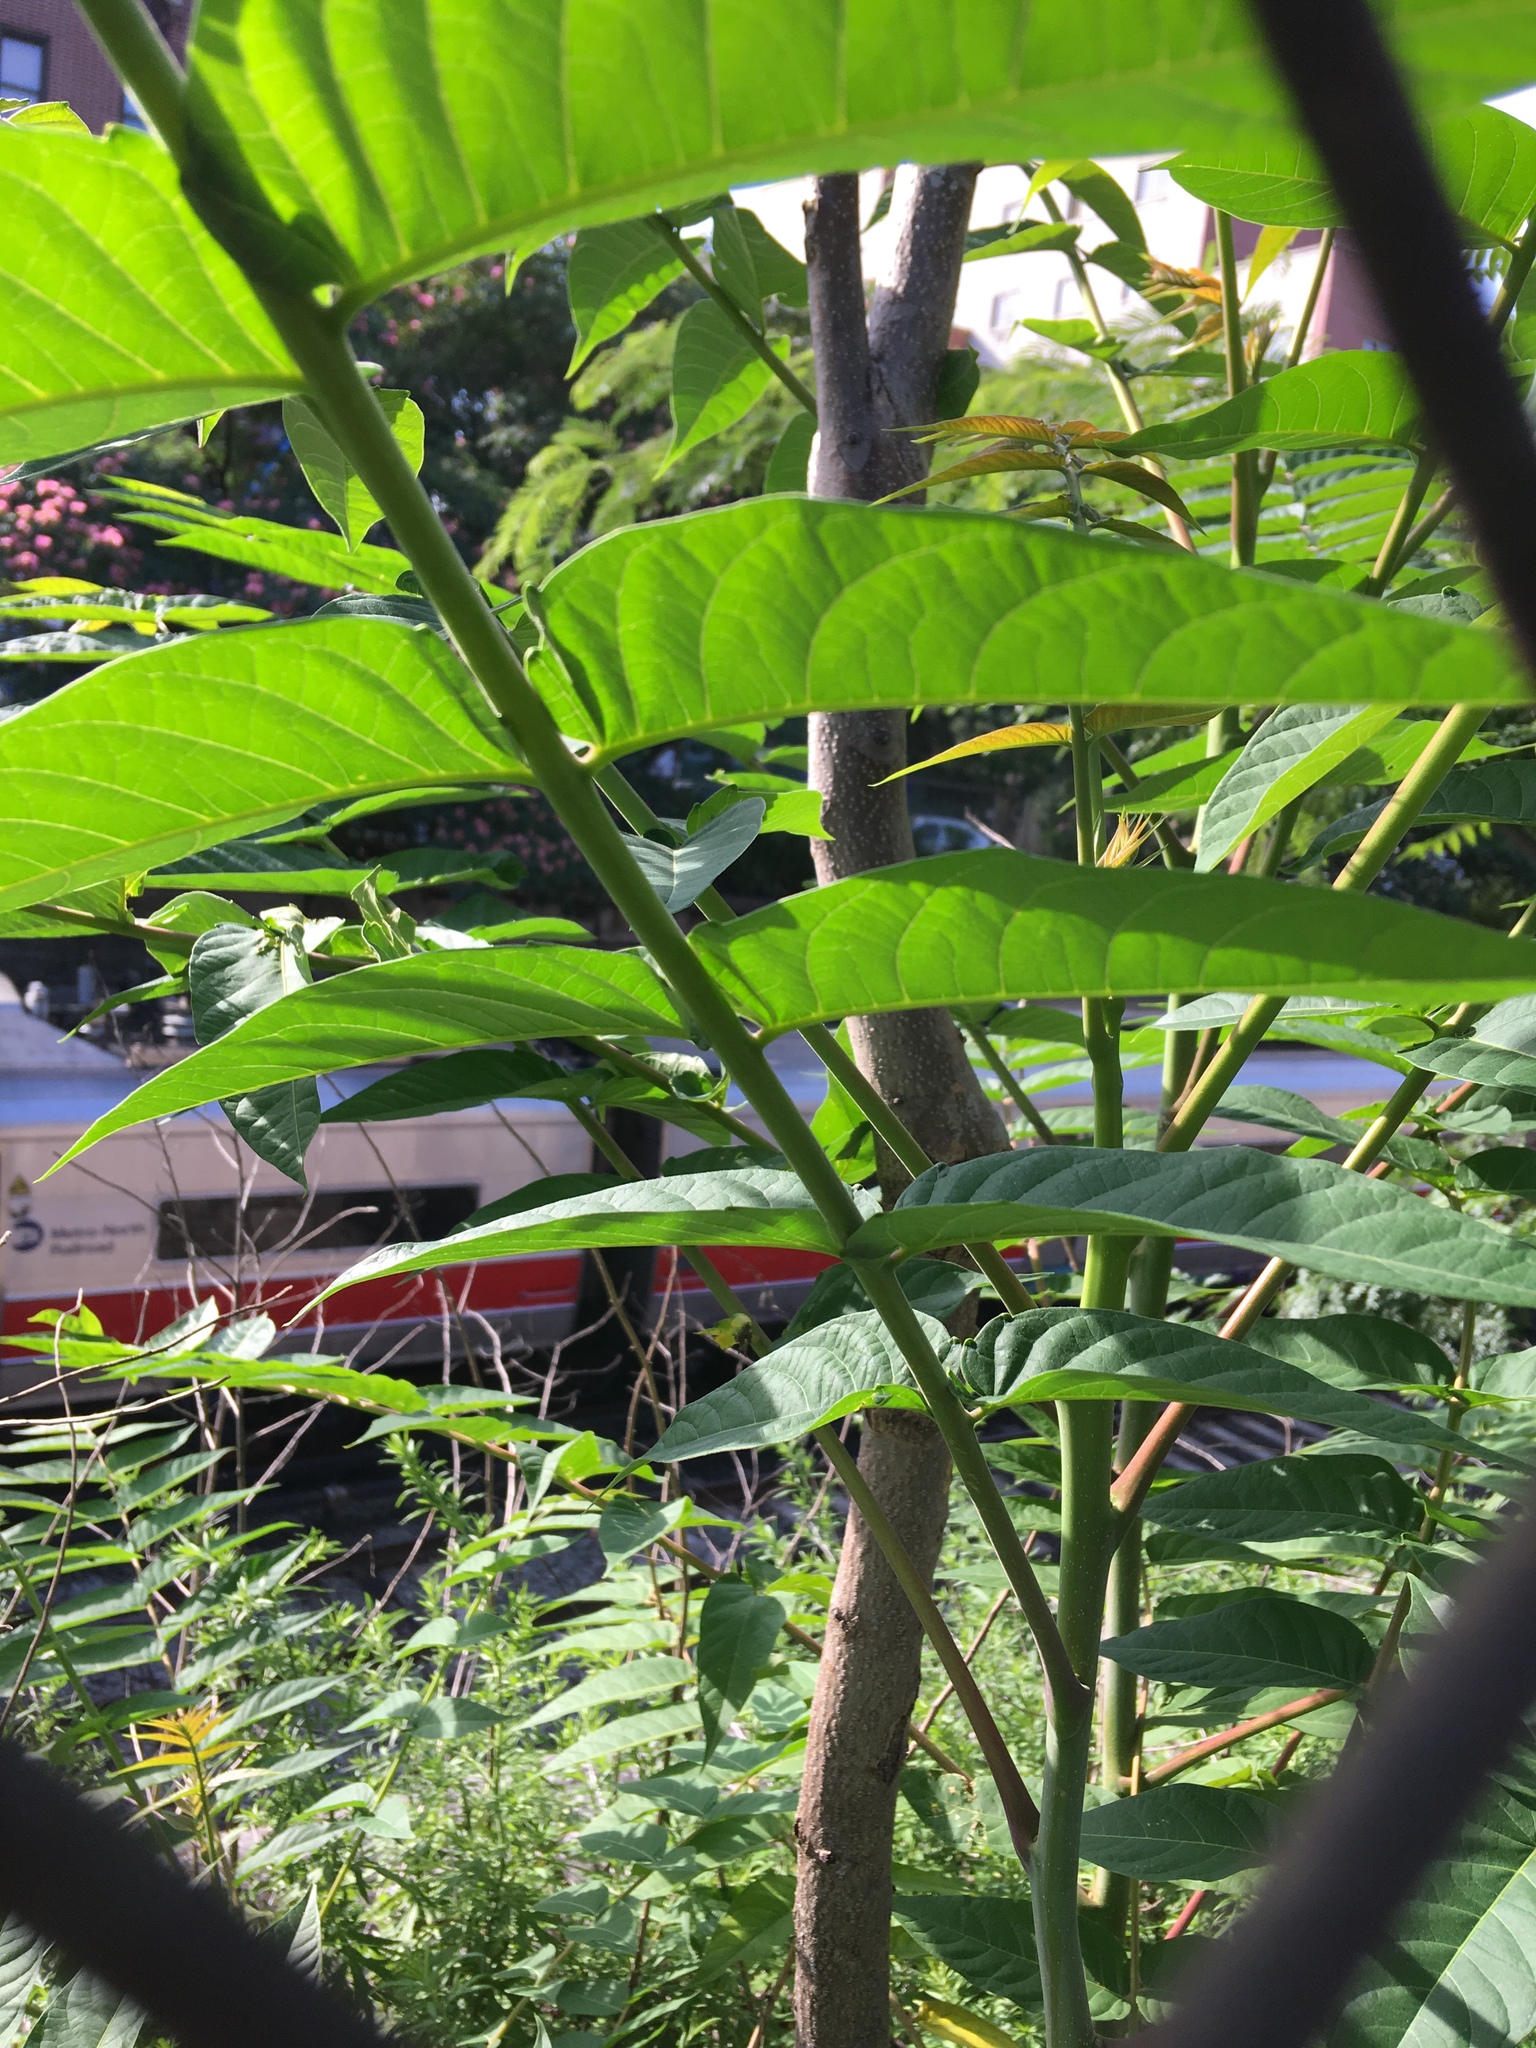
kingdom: Plantae
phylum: Tracheophyta
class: Magnoliopsida
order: Sapindales
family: Simaroubaceae
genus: Ailanthus
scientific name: Ailanthus altissima
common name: Tree-of-heaven
